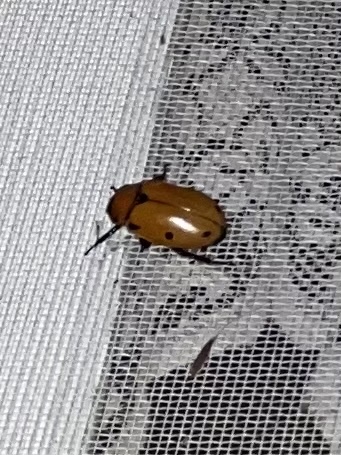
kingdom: Animalia
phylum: Arthropoda
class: Insecta
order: Coleoptera
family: Scarabaeidae
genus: Pelidnota
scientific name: Pelidnota punctata
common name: Grapevine beetle
